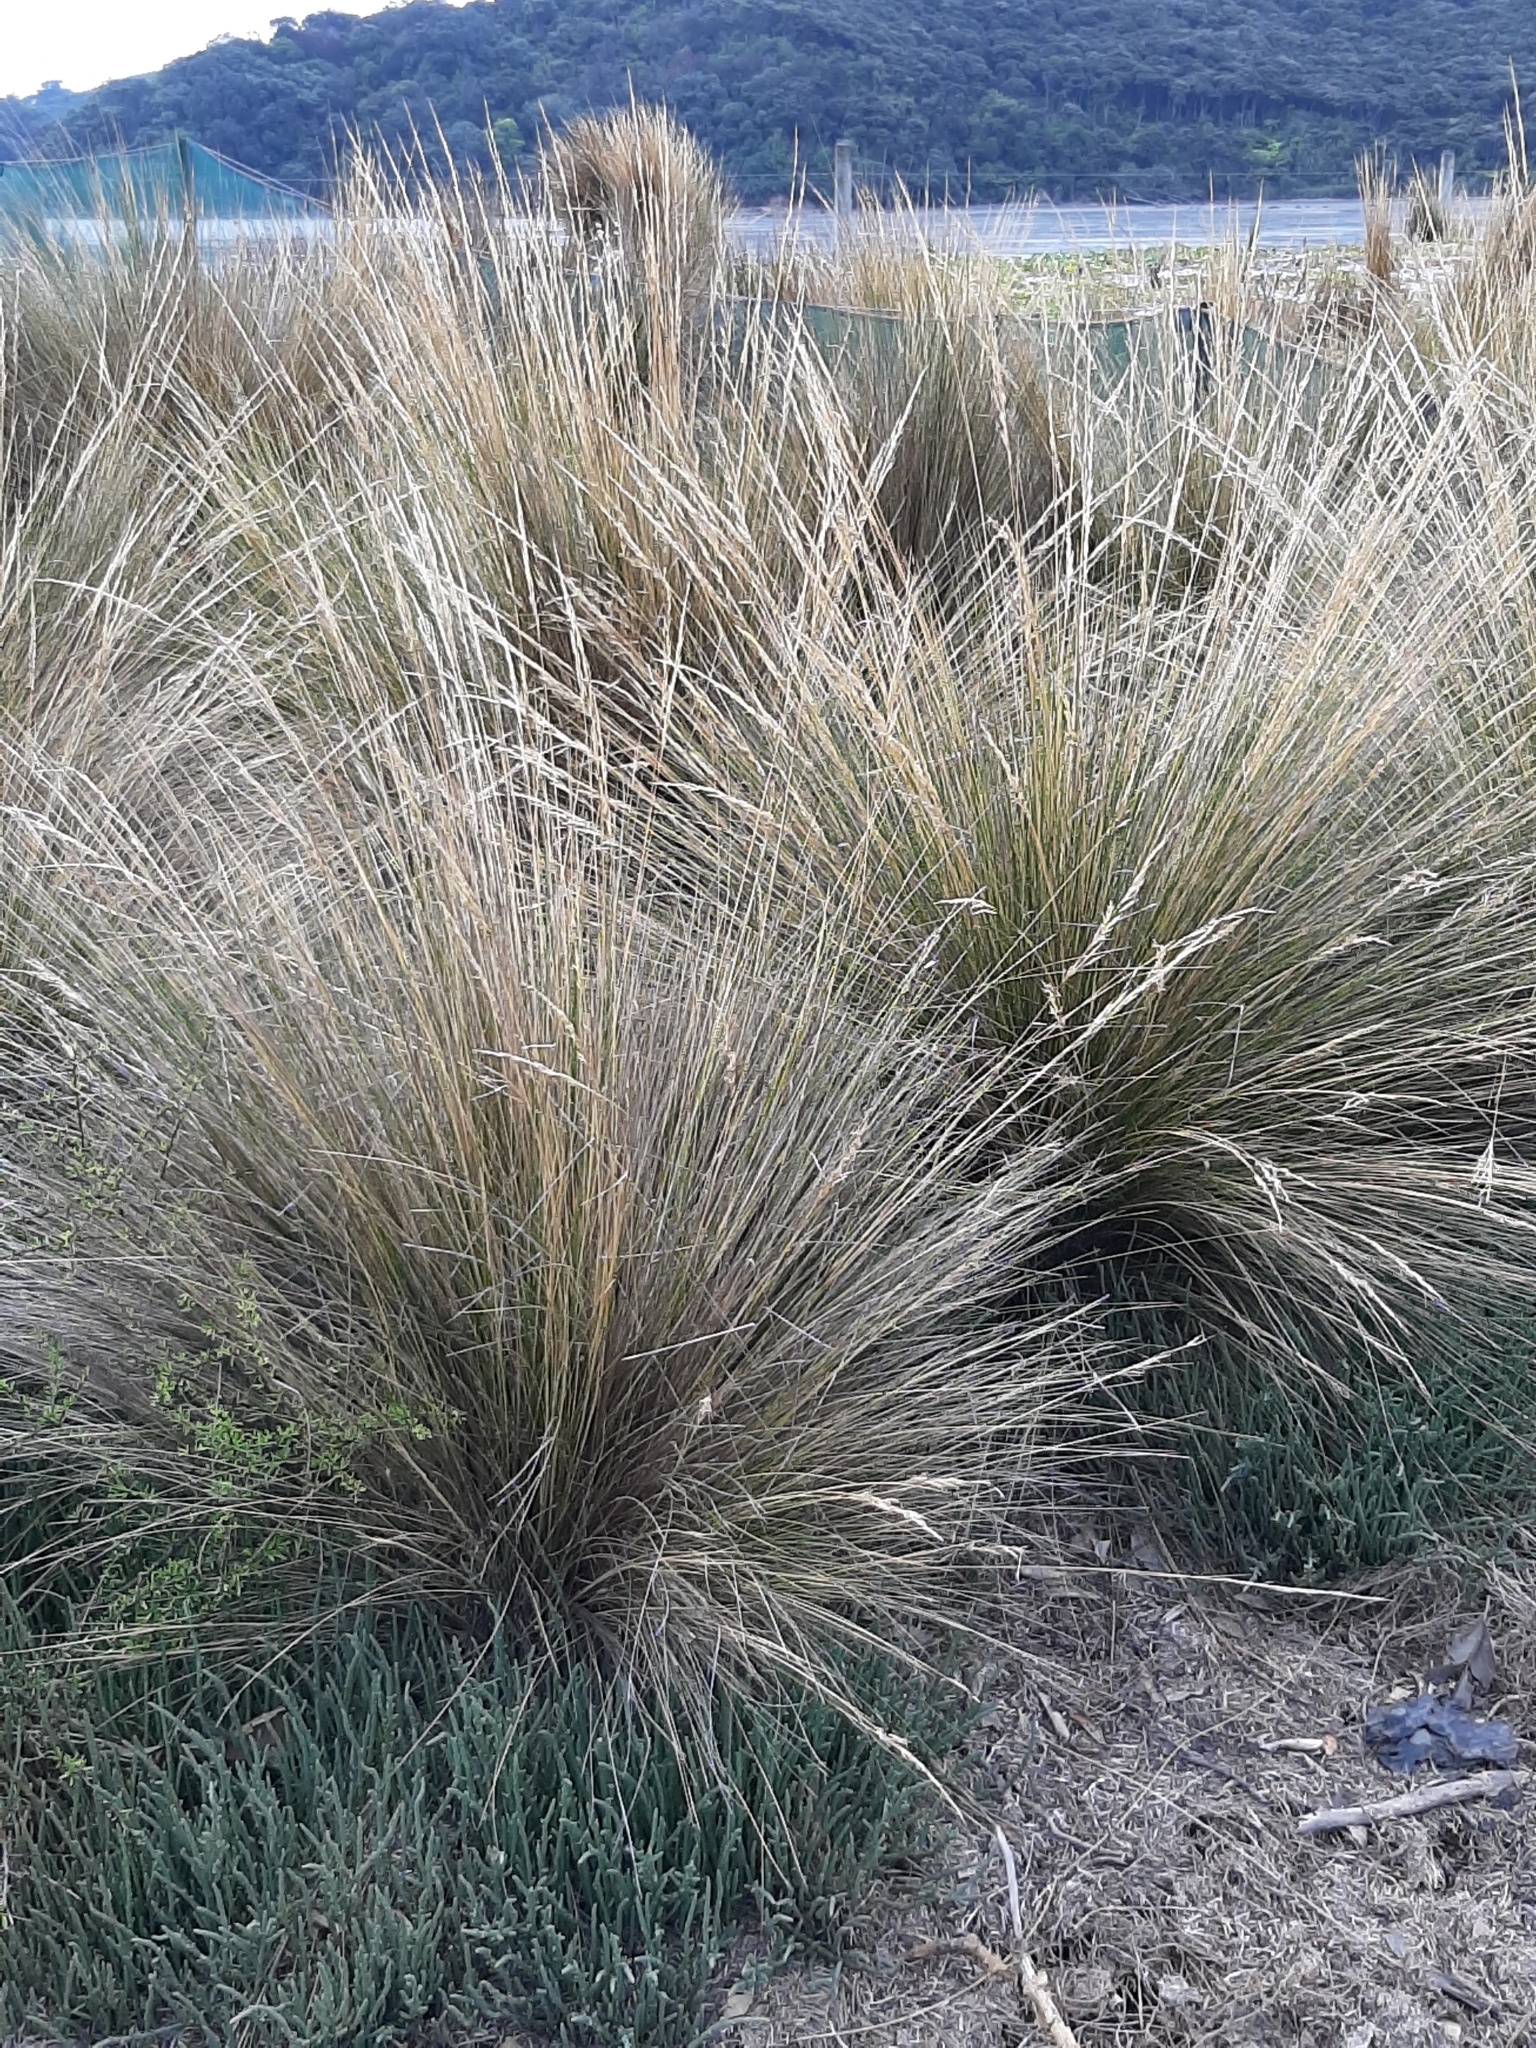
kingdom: Plantae
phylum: Tracheophyta
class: Liliopsida
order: Poales
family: Poaceae
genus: Austrostipa
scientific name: Austrostipa stipoides
